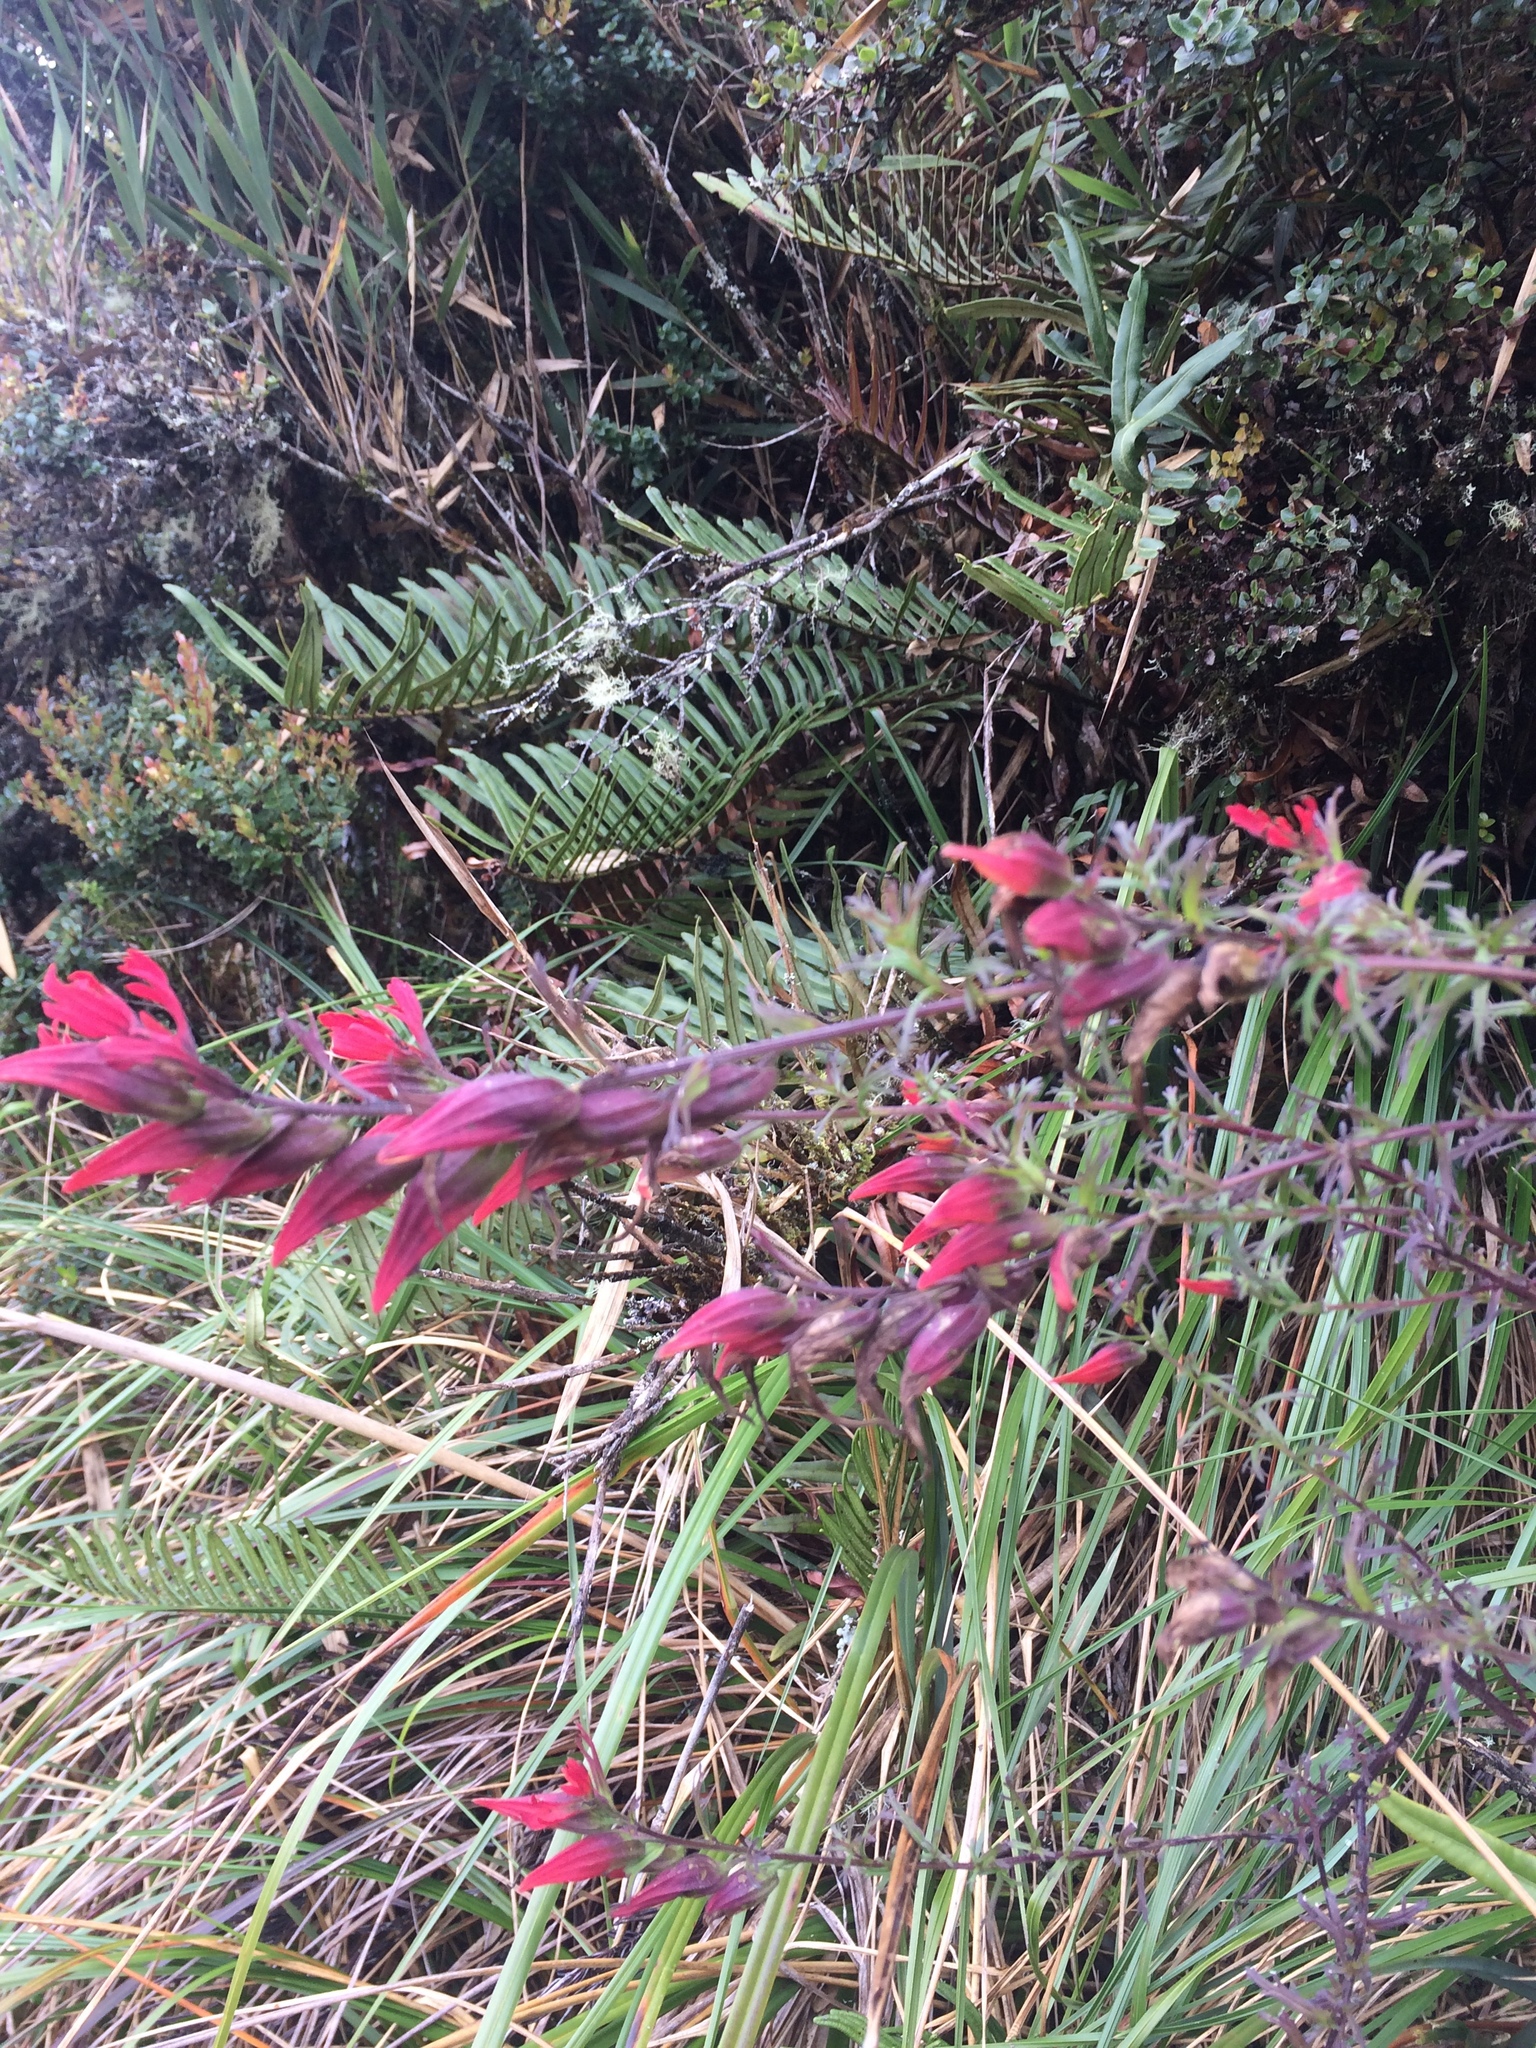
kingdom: Plantae
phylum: Tracheophyta
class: Magnoliopsida
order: Lamiales
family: Orobanchaceae
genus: Castilleja
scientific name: Castilleja fissifolia
